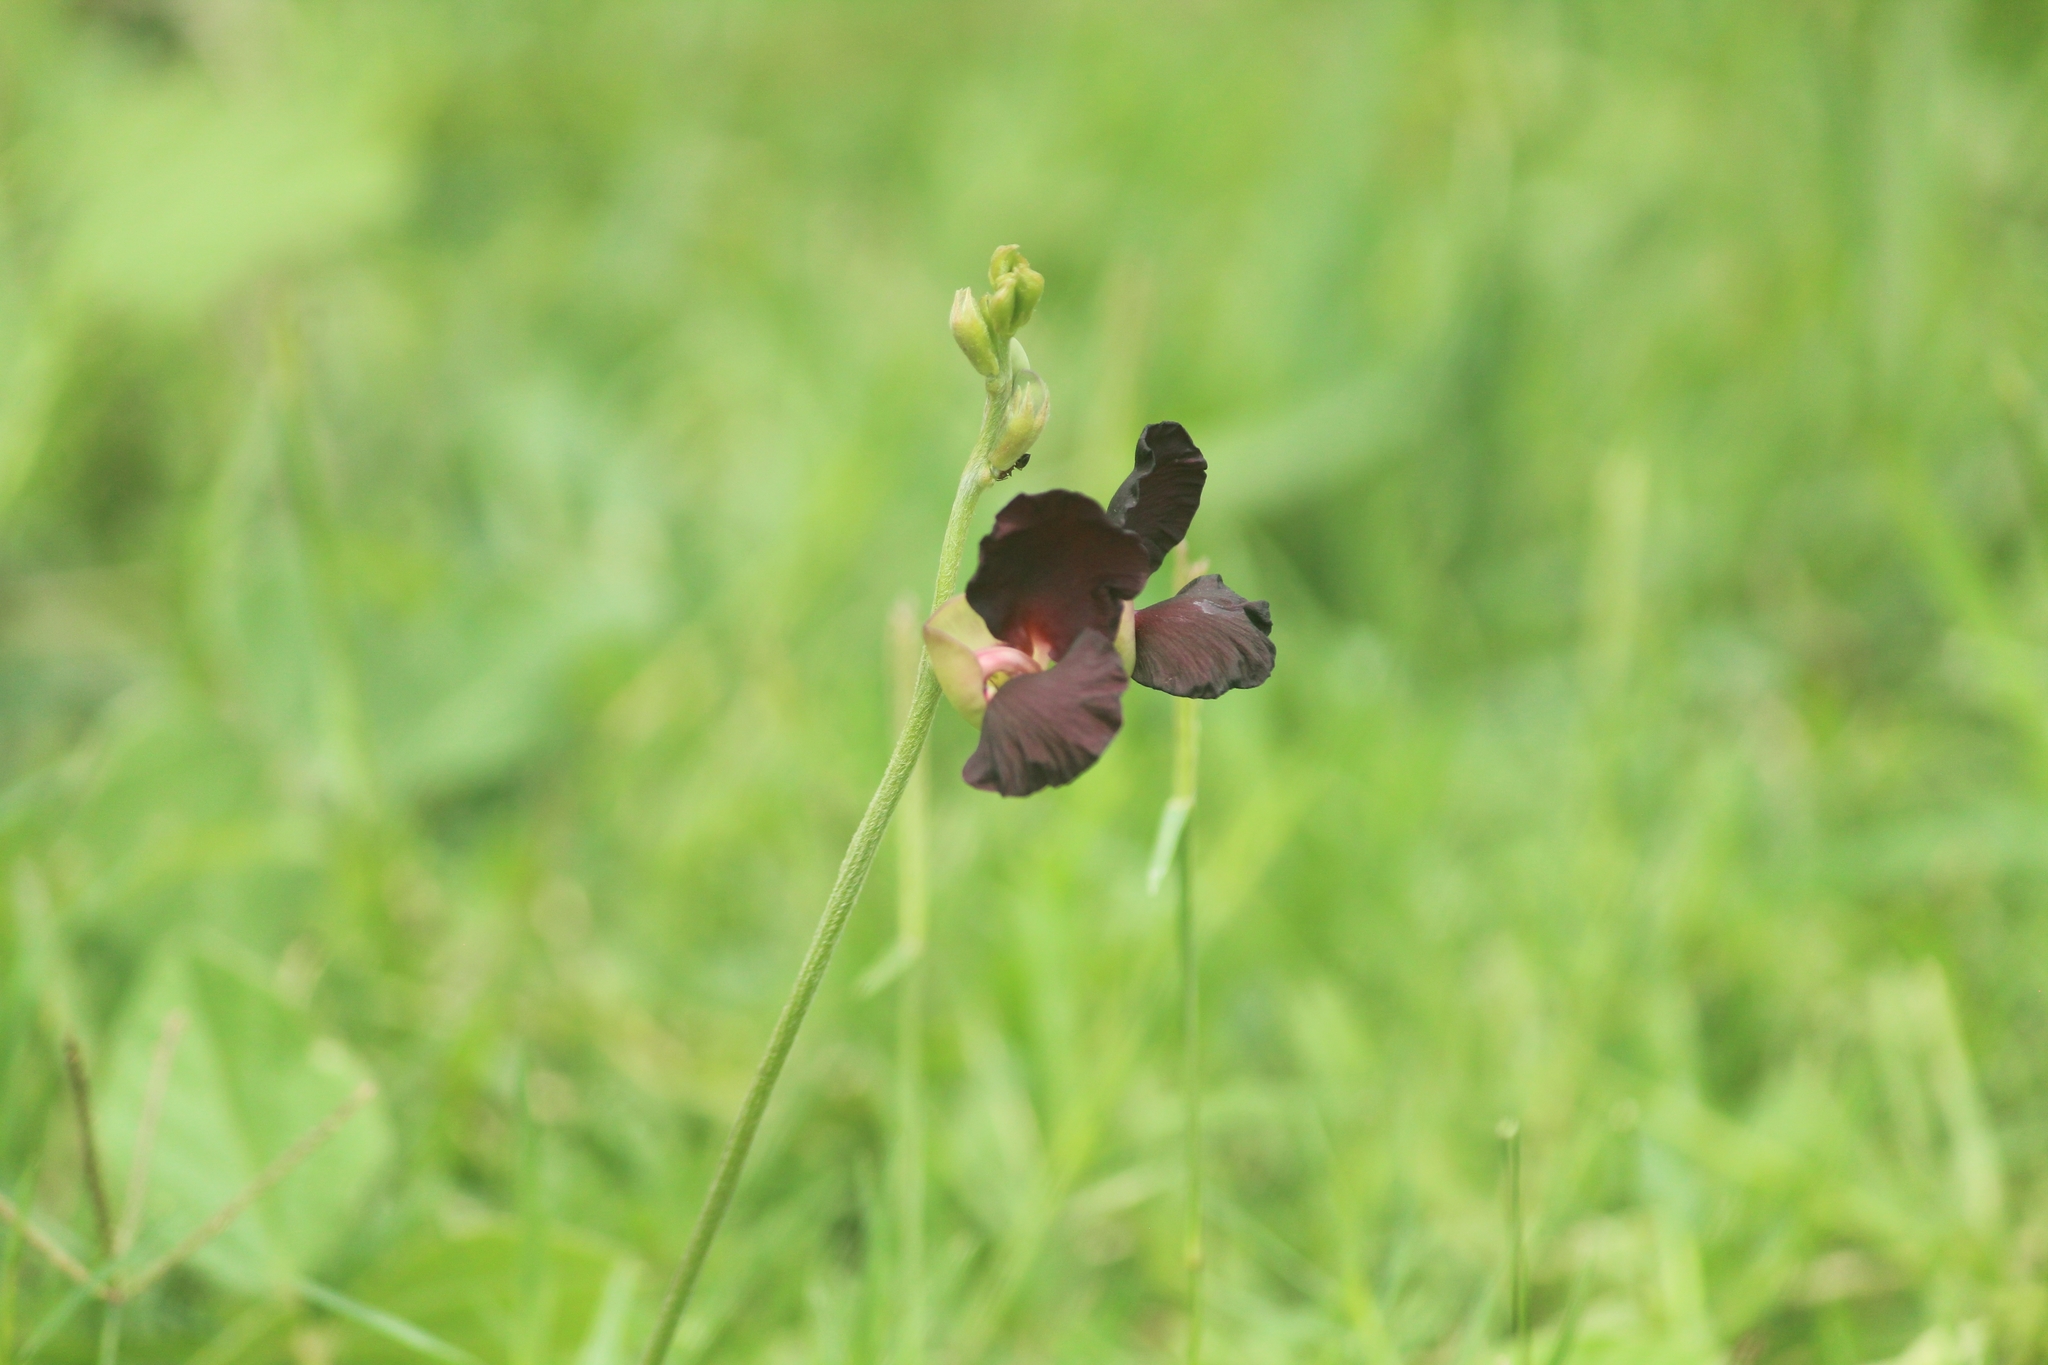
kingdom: Plantae
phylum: Tracheophyta
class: Magnoliopsida
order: Fabales
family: Fabaceae
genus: Macroptilium
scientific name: Macroptilium atropurpureum
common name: Purple bushbean
